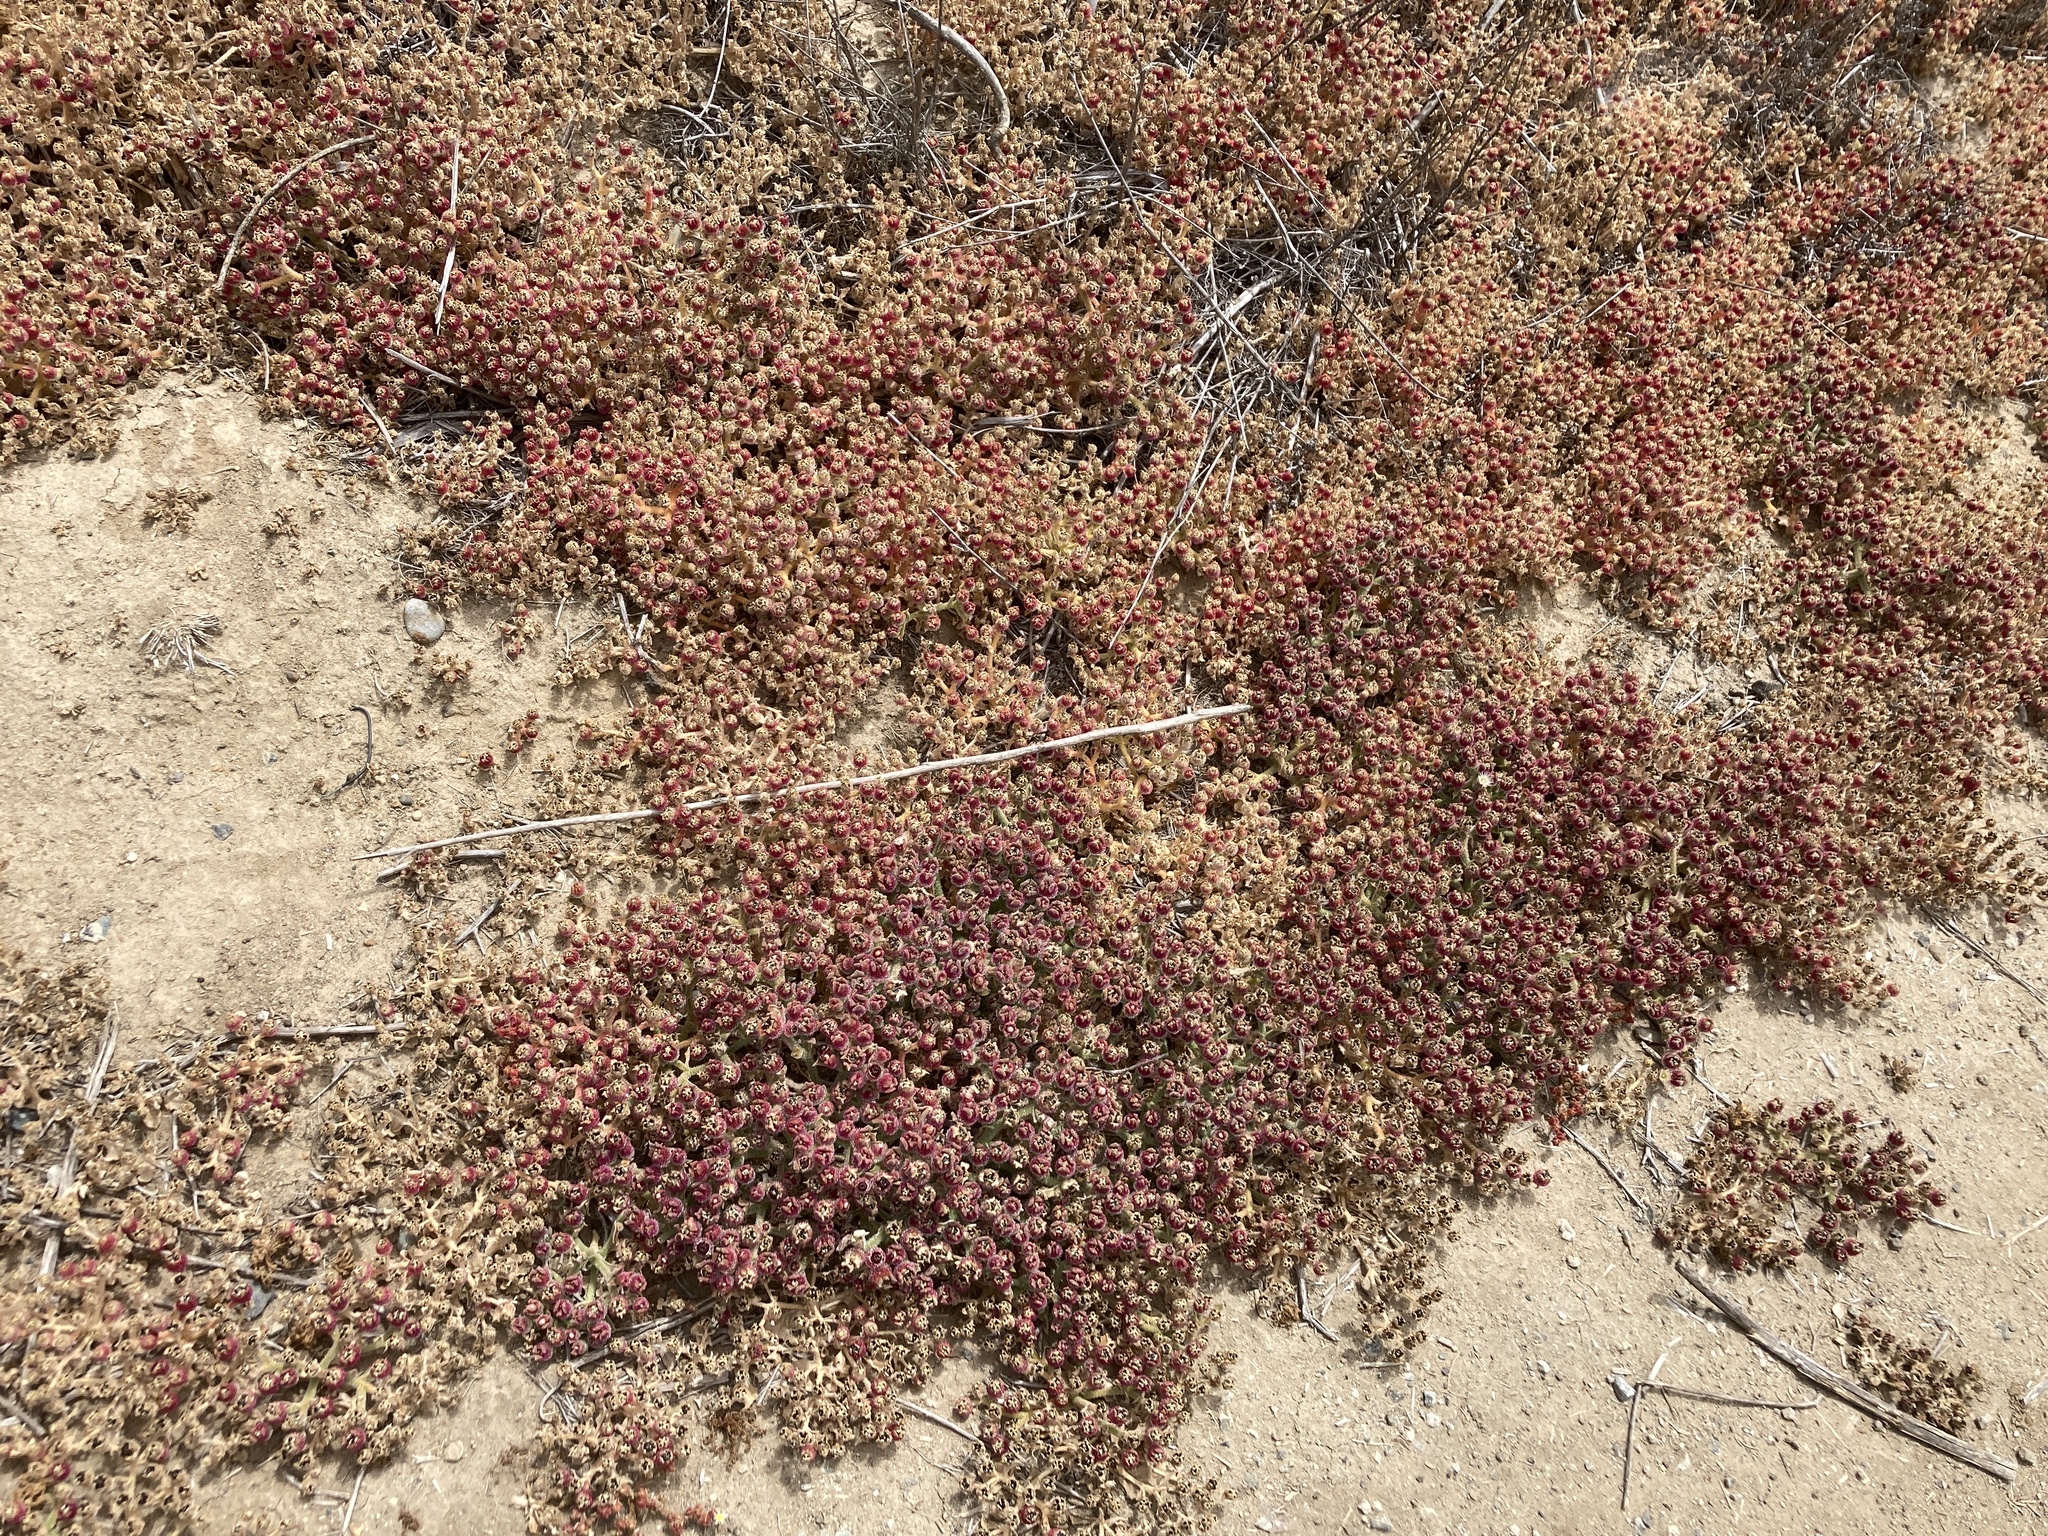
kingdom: Plantae
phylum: Tracheophyta
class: Magnoliopsida
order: Caryophyllales
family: Aizoaceae
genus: Mesembryanthemum
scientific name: Mesembryanthemum crystallinum
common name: Common iceplant
